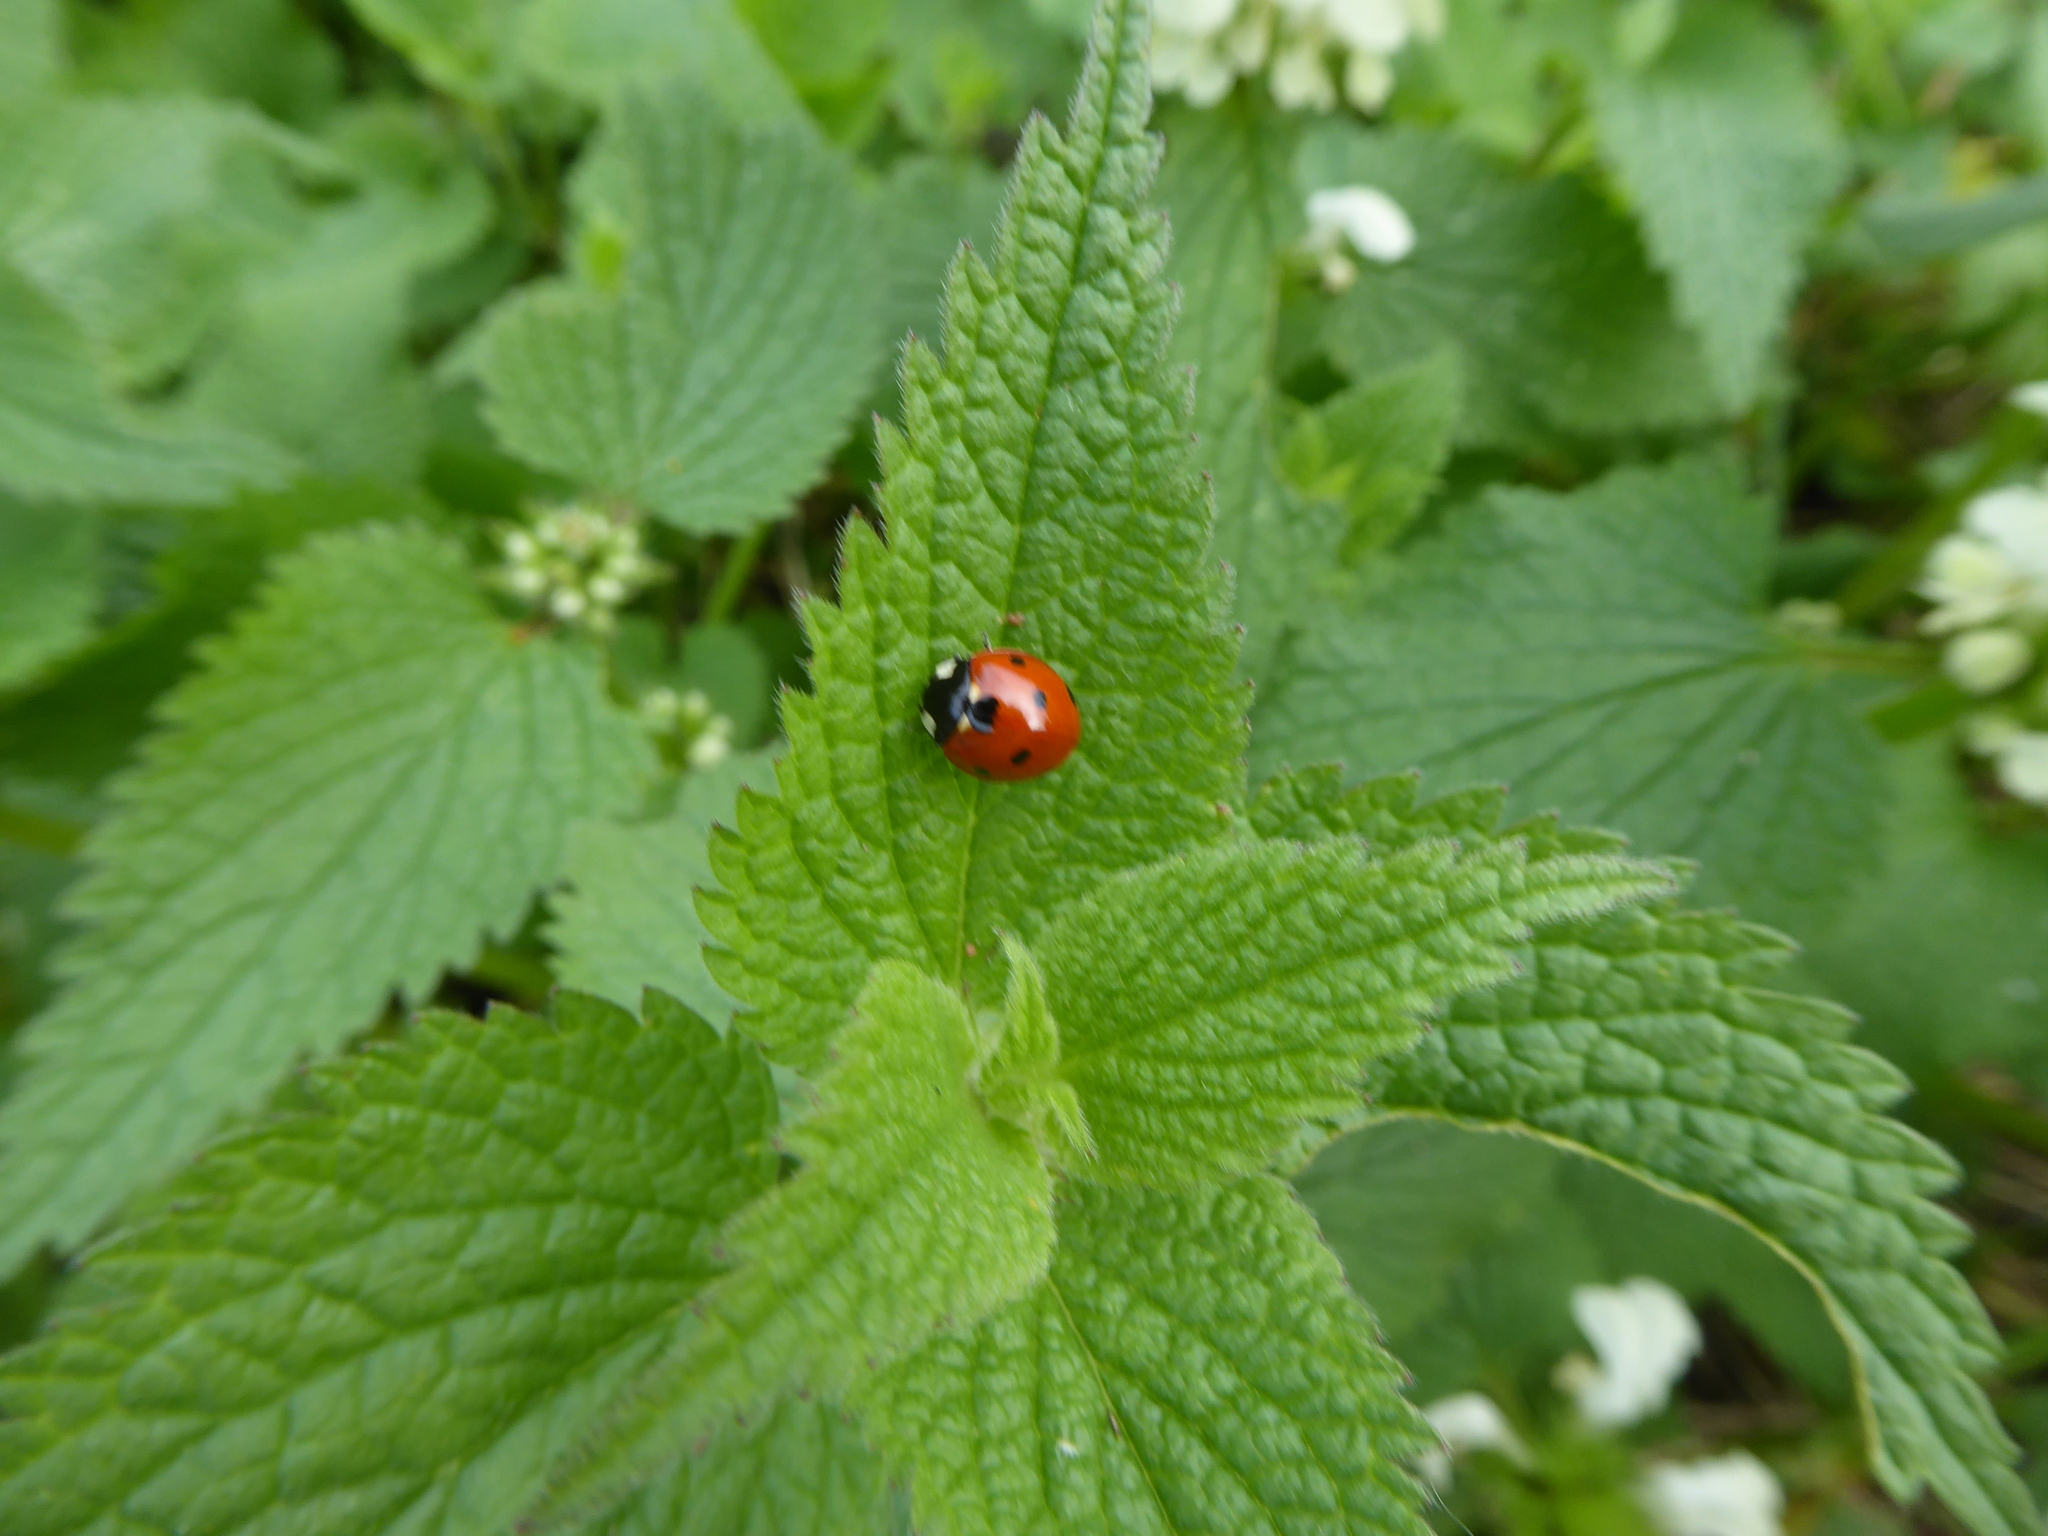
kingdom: Animalia
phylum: Arthropoda
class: Insecta
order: Coleoptera
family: Coccinellidae
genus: Coccinella
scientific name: Coccinella septempunctata
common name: Sevenspotted lady beetle
